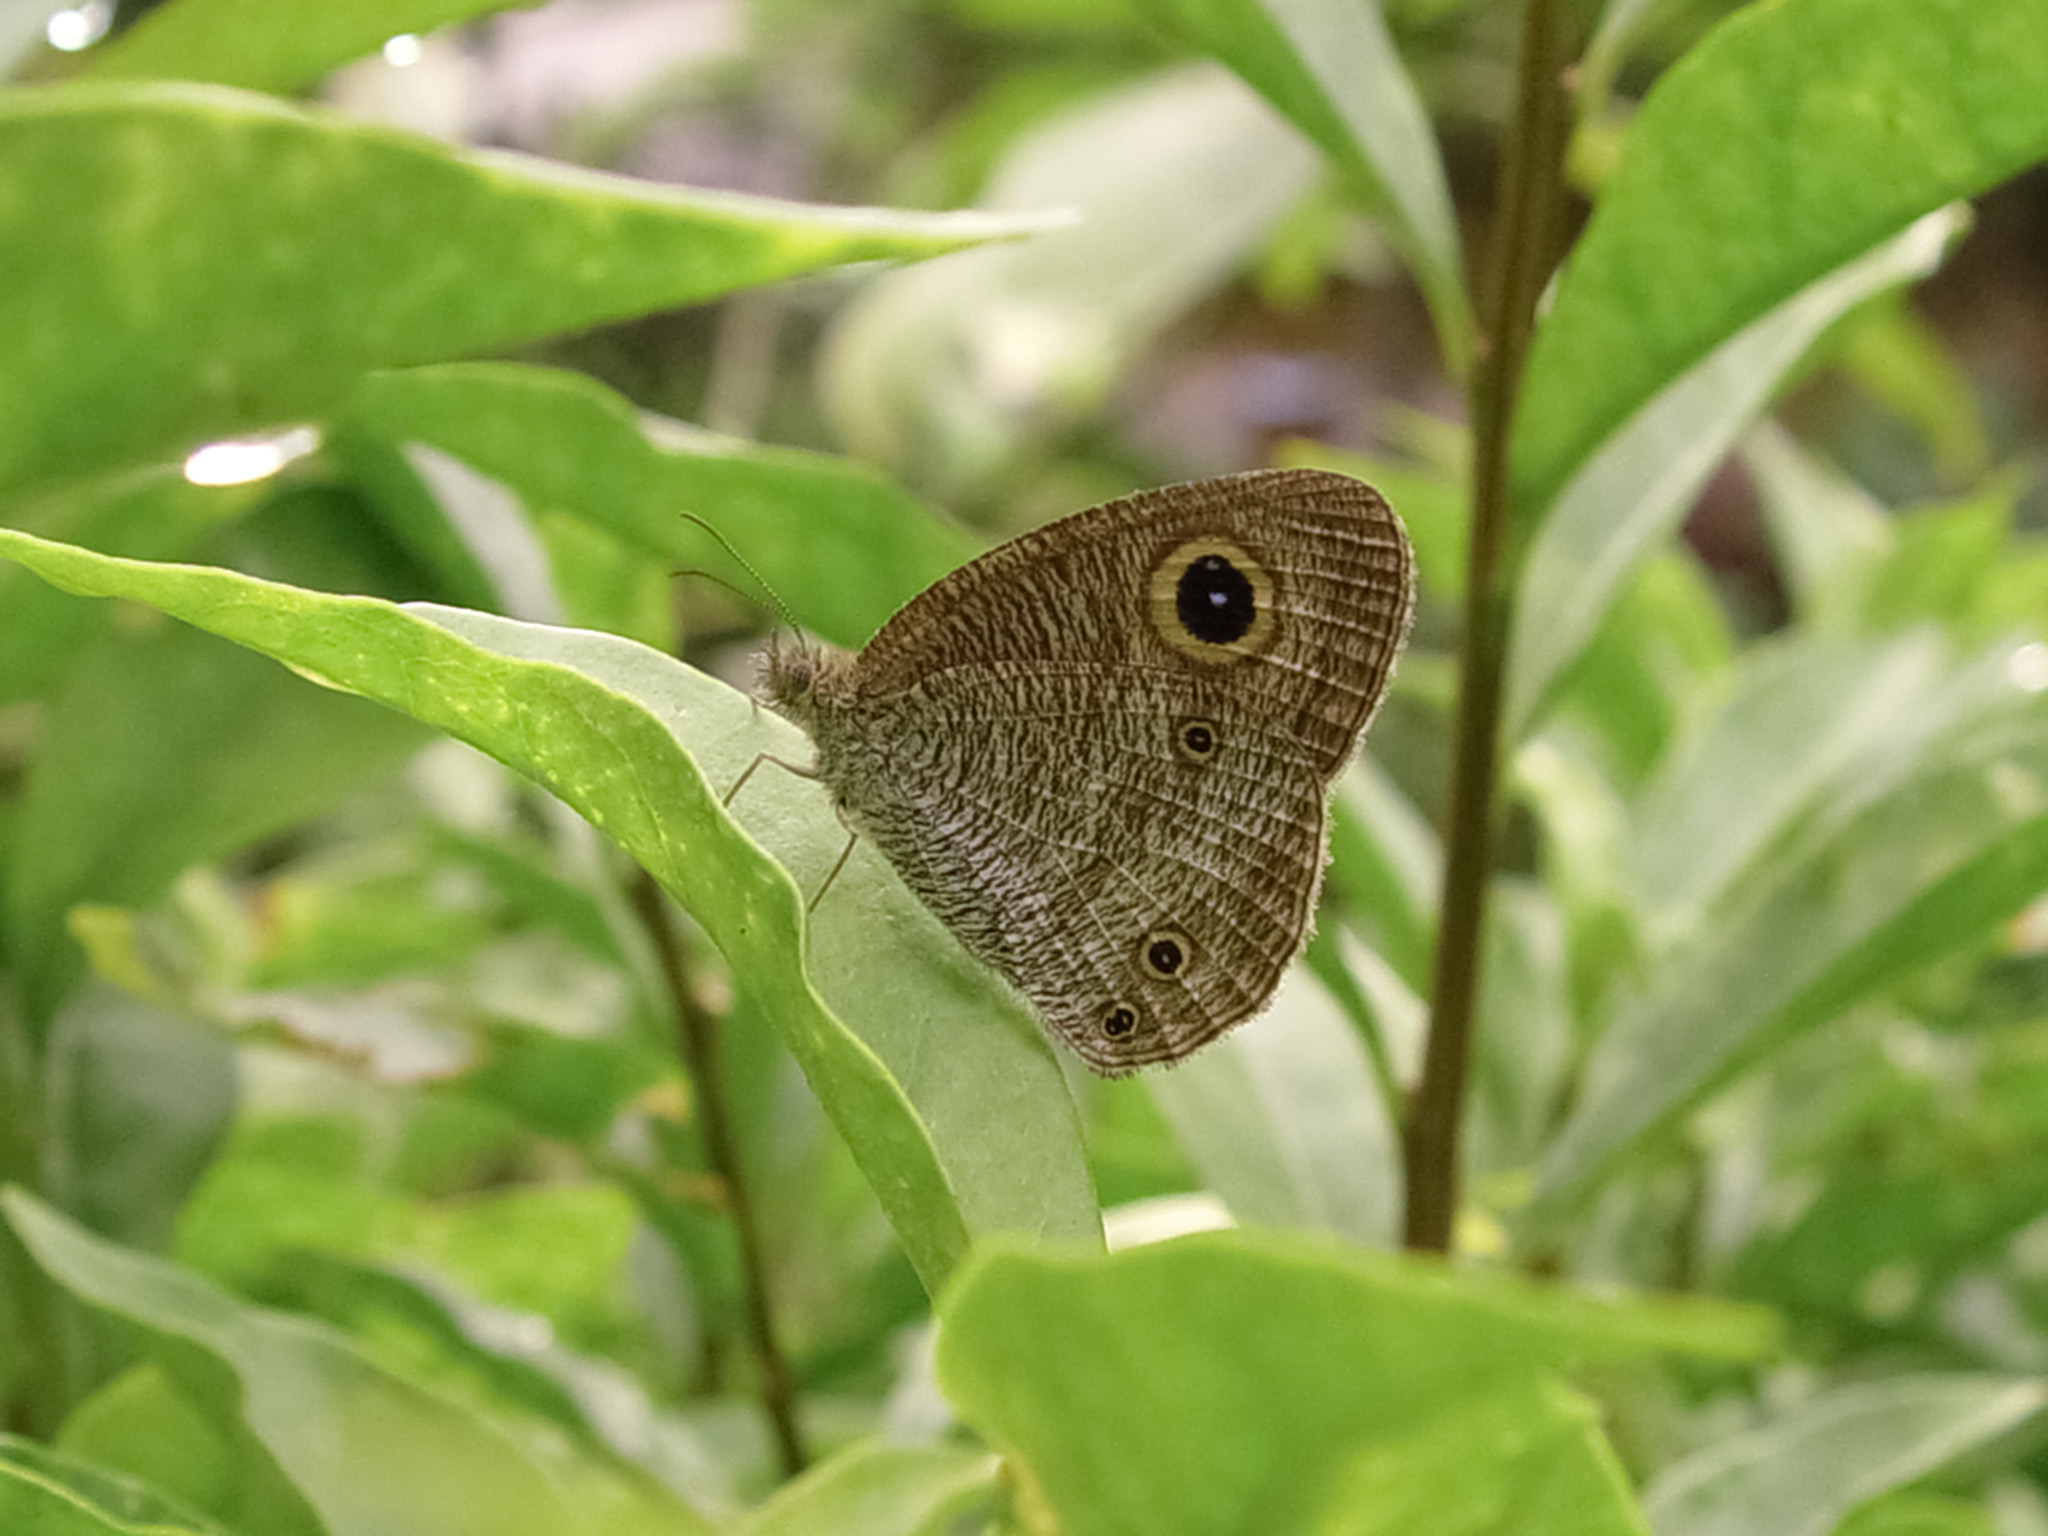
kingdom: Animalia
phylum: Arthropoda
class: Insecta
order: Lepidoptera
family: Nymphalidae
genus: Ypthima
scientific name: Ypthima pandocus
